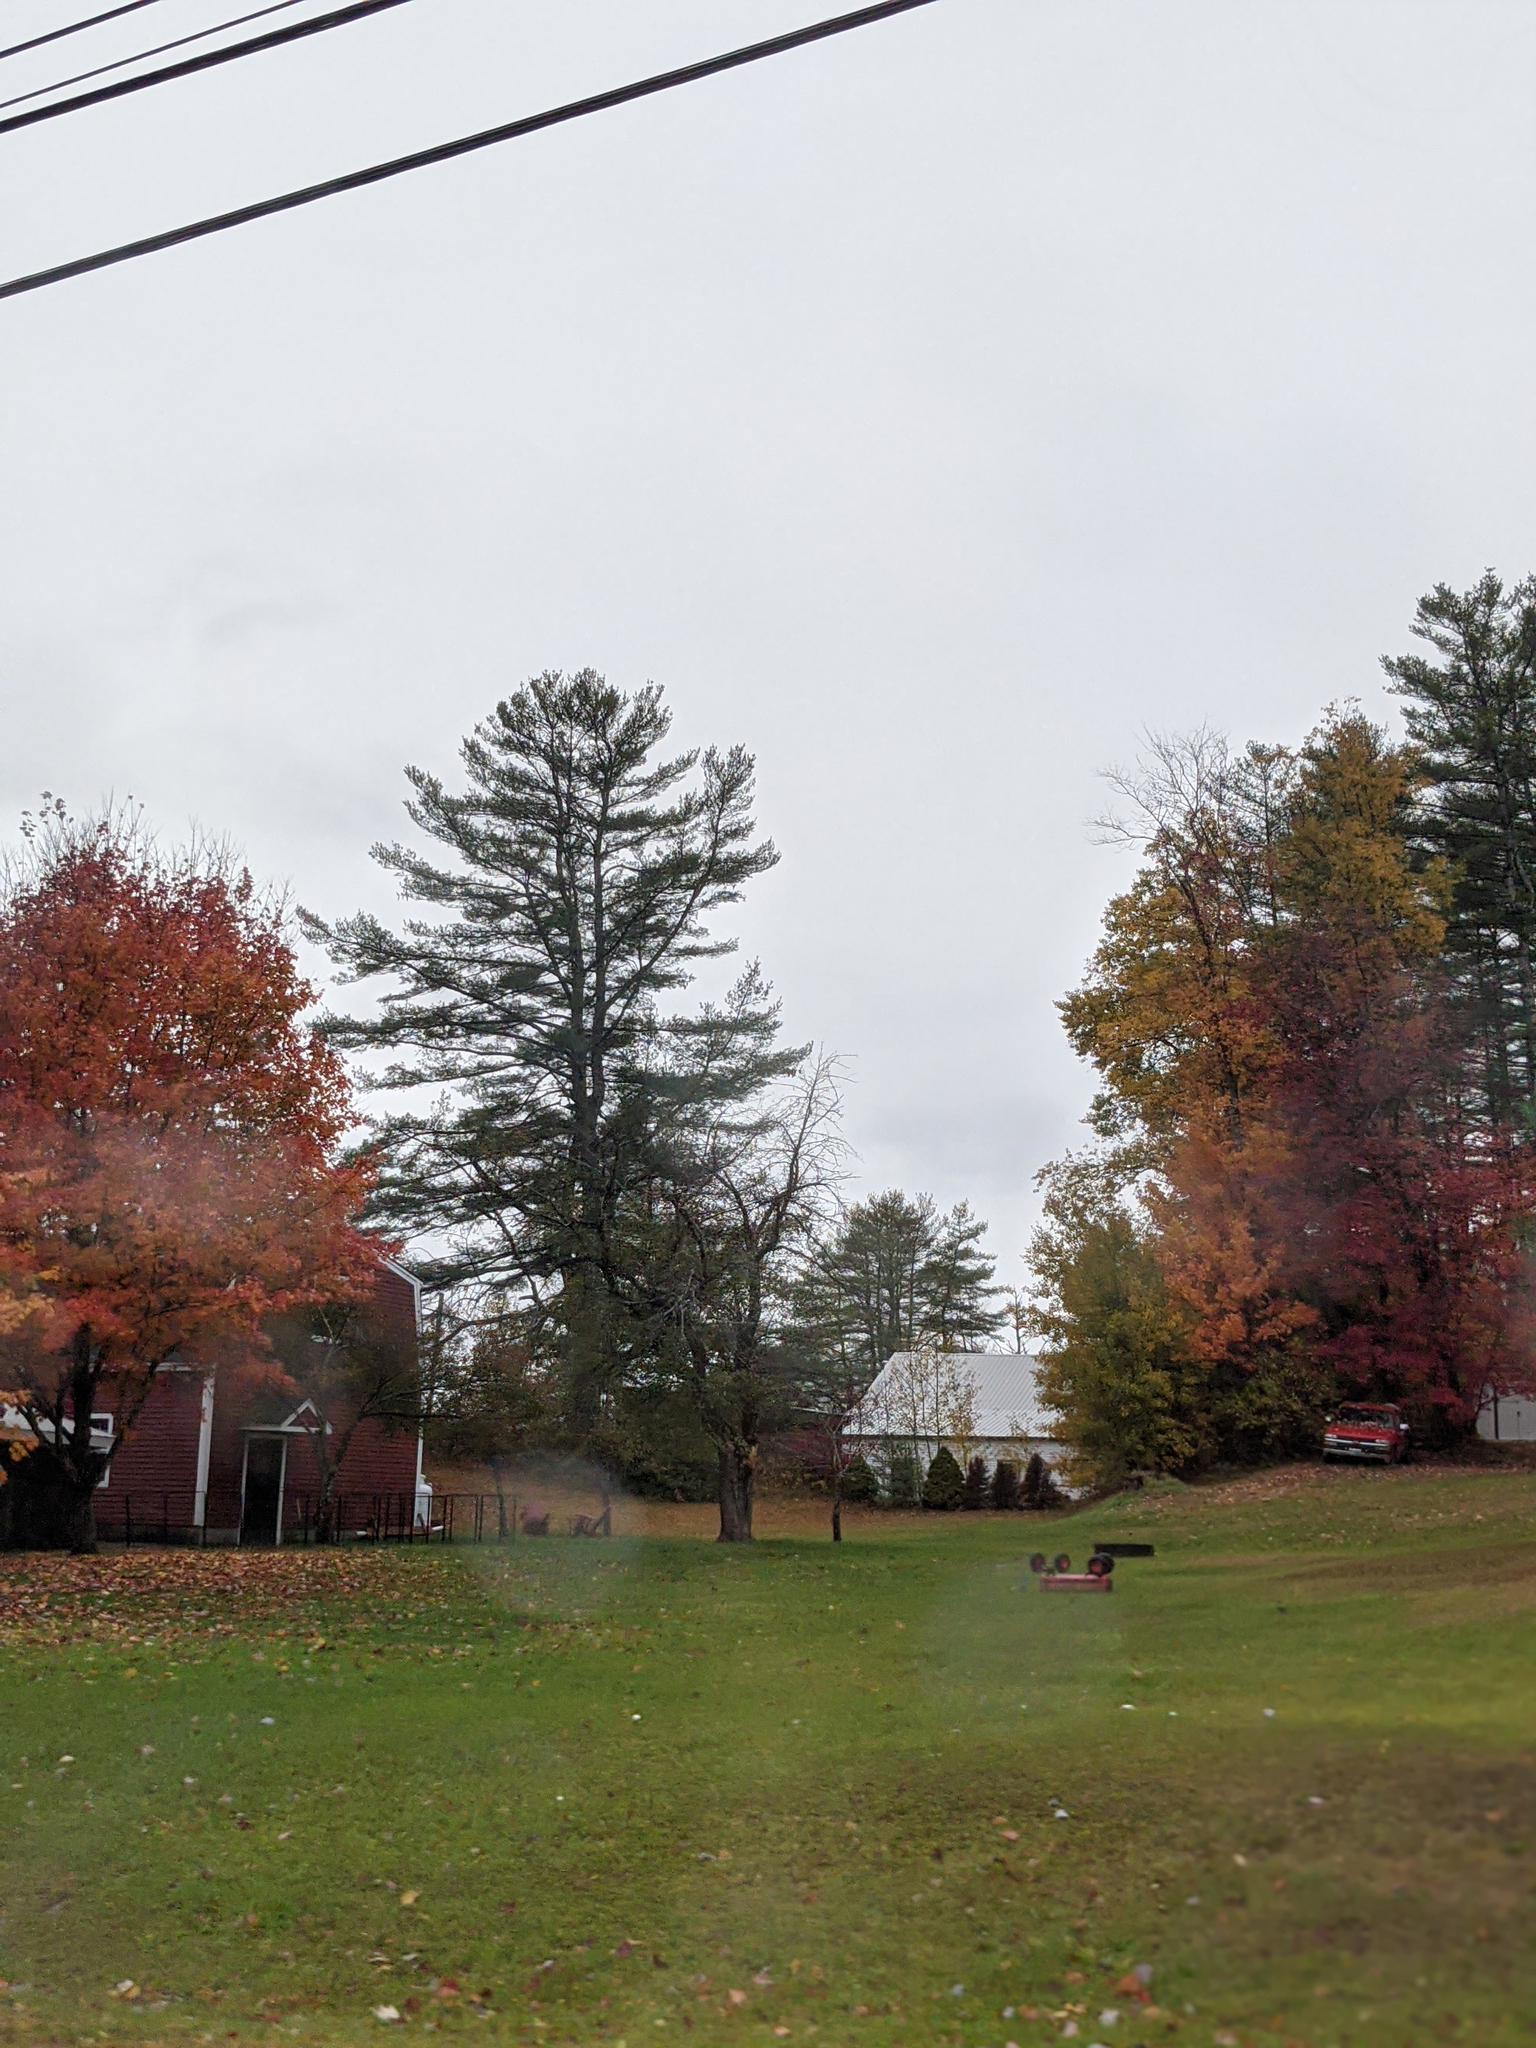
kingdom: Plantae
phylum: Tracheophyta
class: Pinopsida
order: Pinales
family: Pinaceae
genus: Pinus
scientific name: Pinus strobus
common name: Weymouth pine
